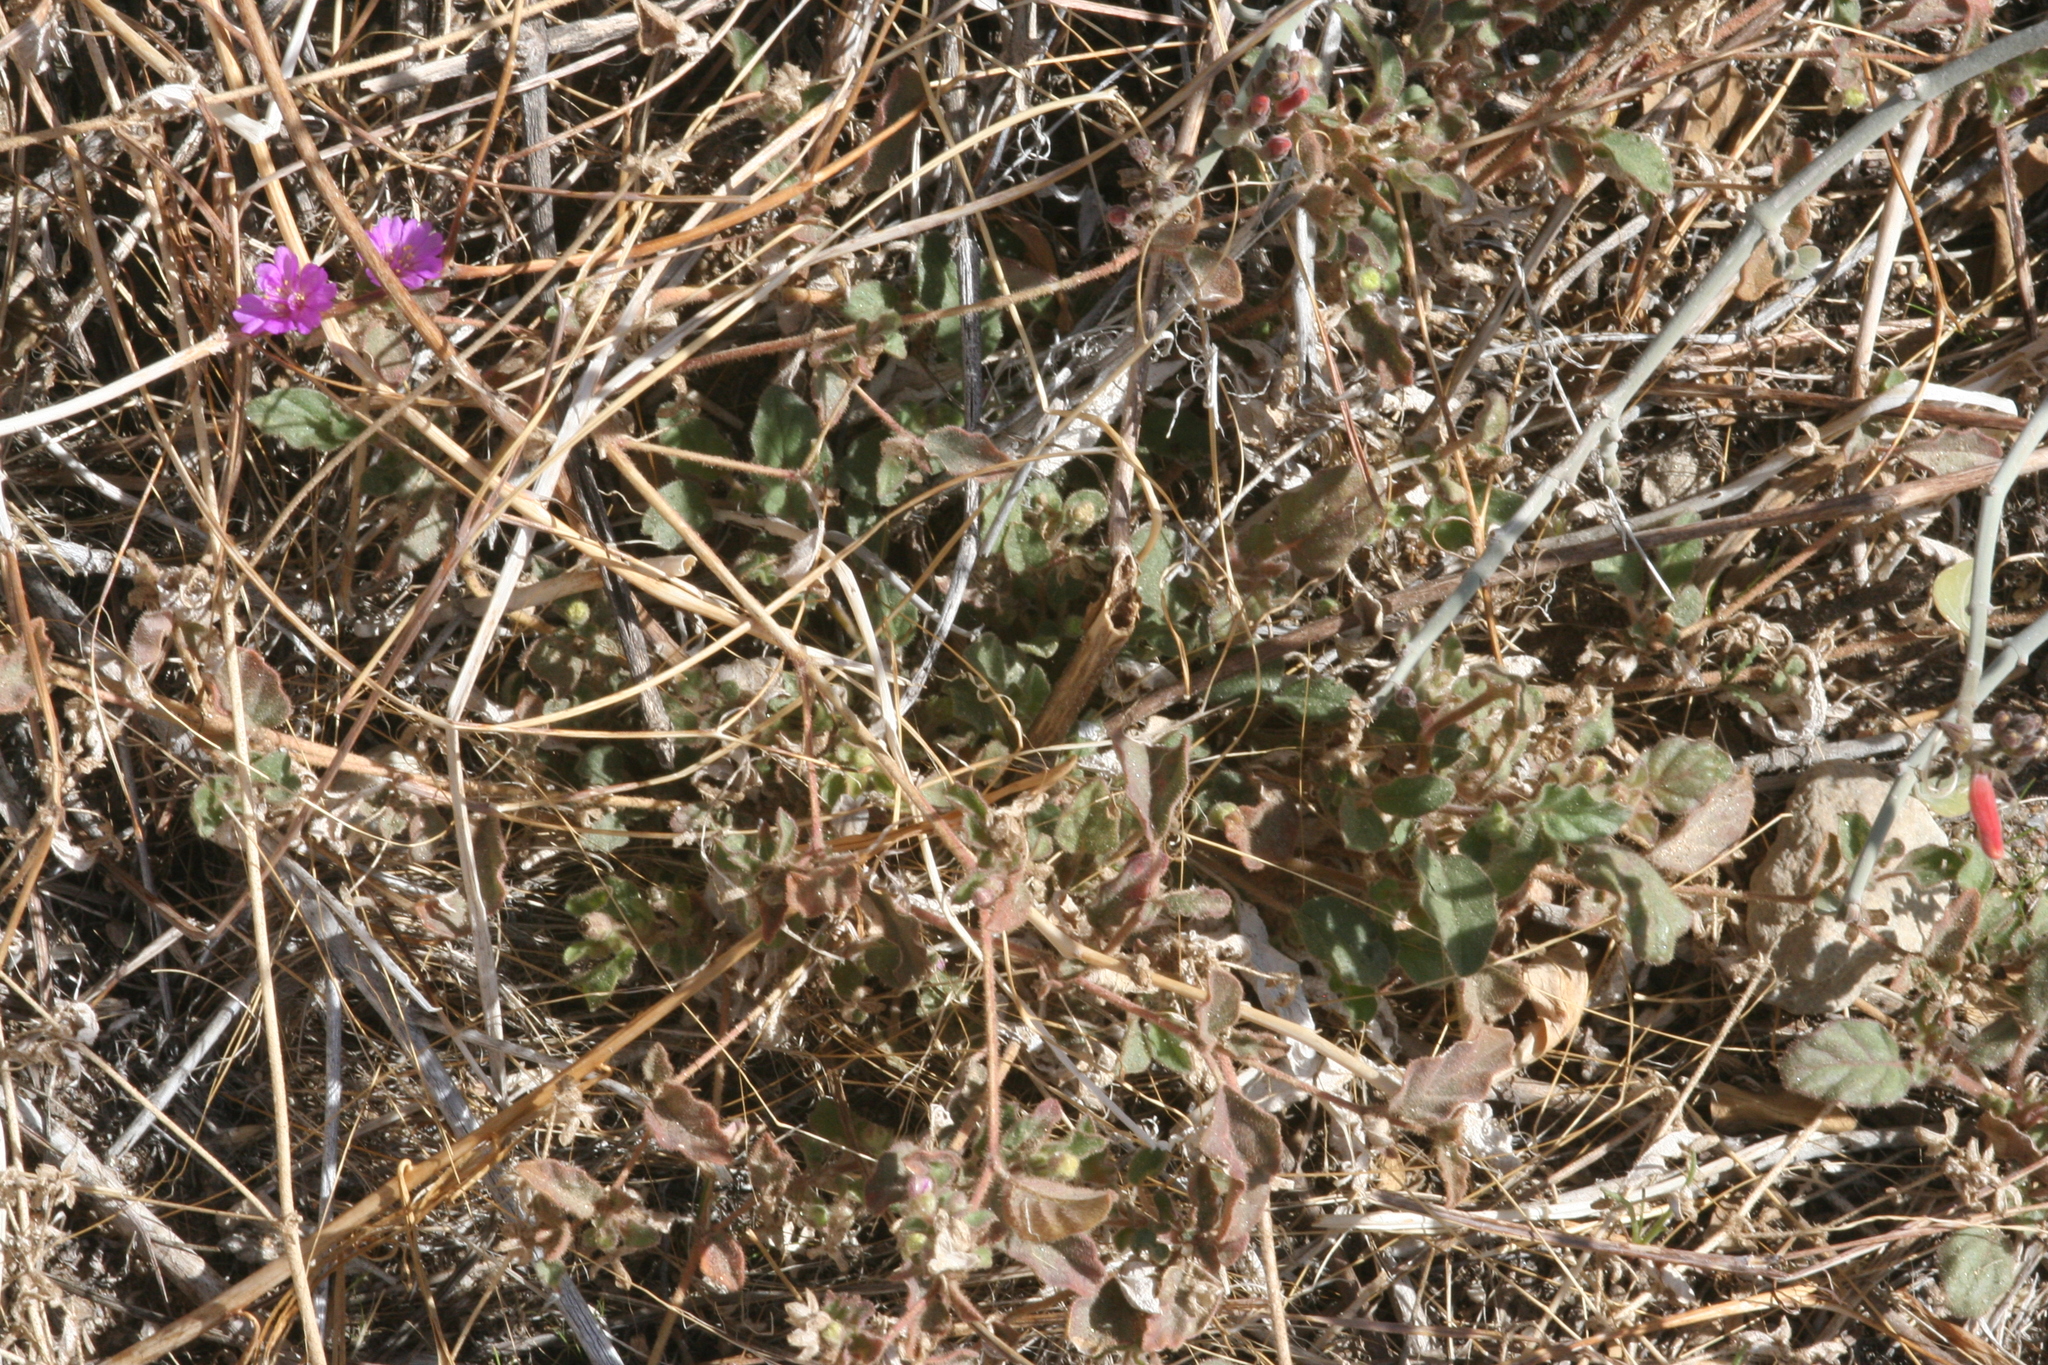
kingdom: Plantae
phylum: Tracheophyta
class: Magnoliopsida
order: Caryophyllales
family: Nyctaginaceae
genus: Allionia
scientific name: Allionia incarnata
